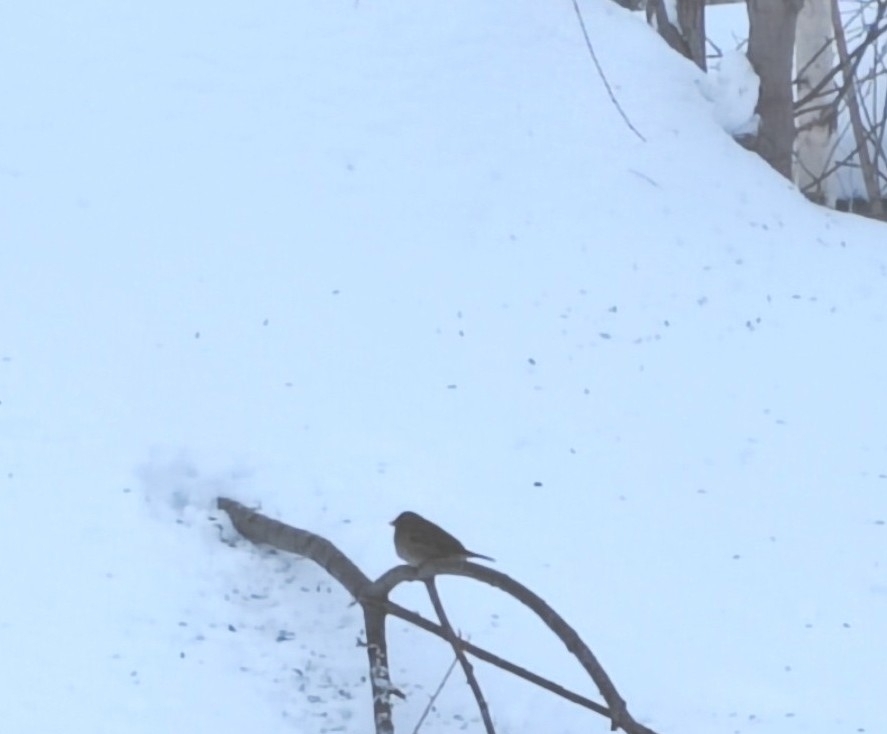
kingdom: Animalia
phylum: Chordata
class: Aves
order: Passeriformes
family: Passeridae
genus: Passer
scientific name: Passer domesticus
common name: House sparrow
